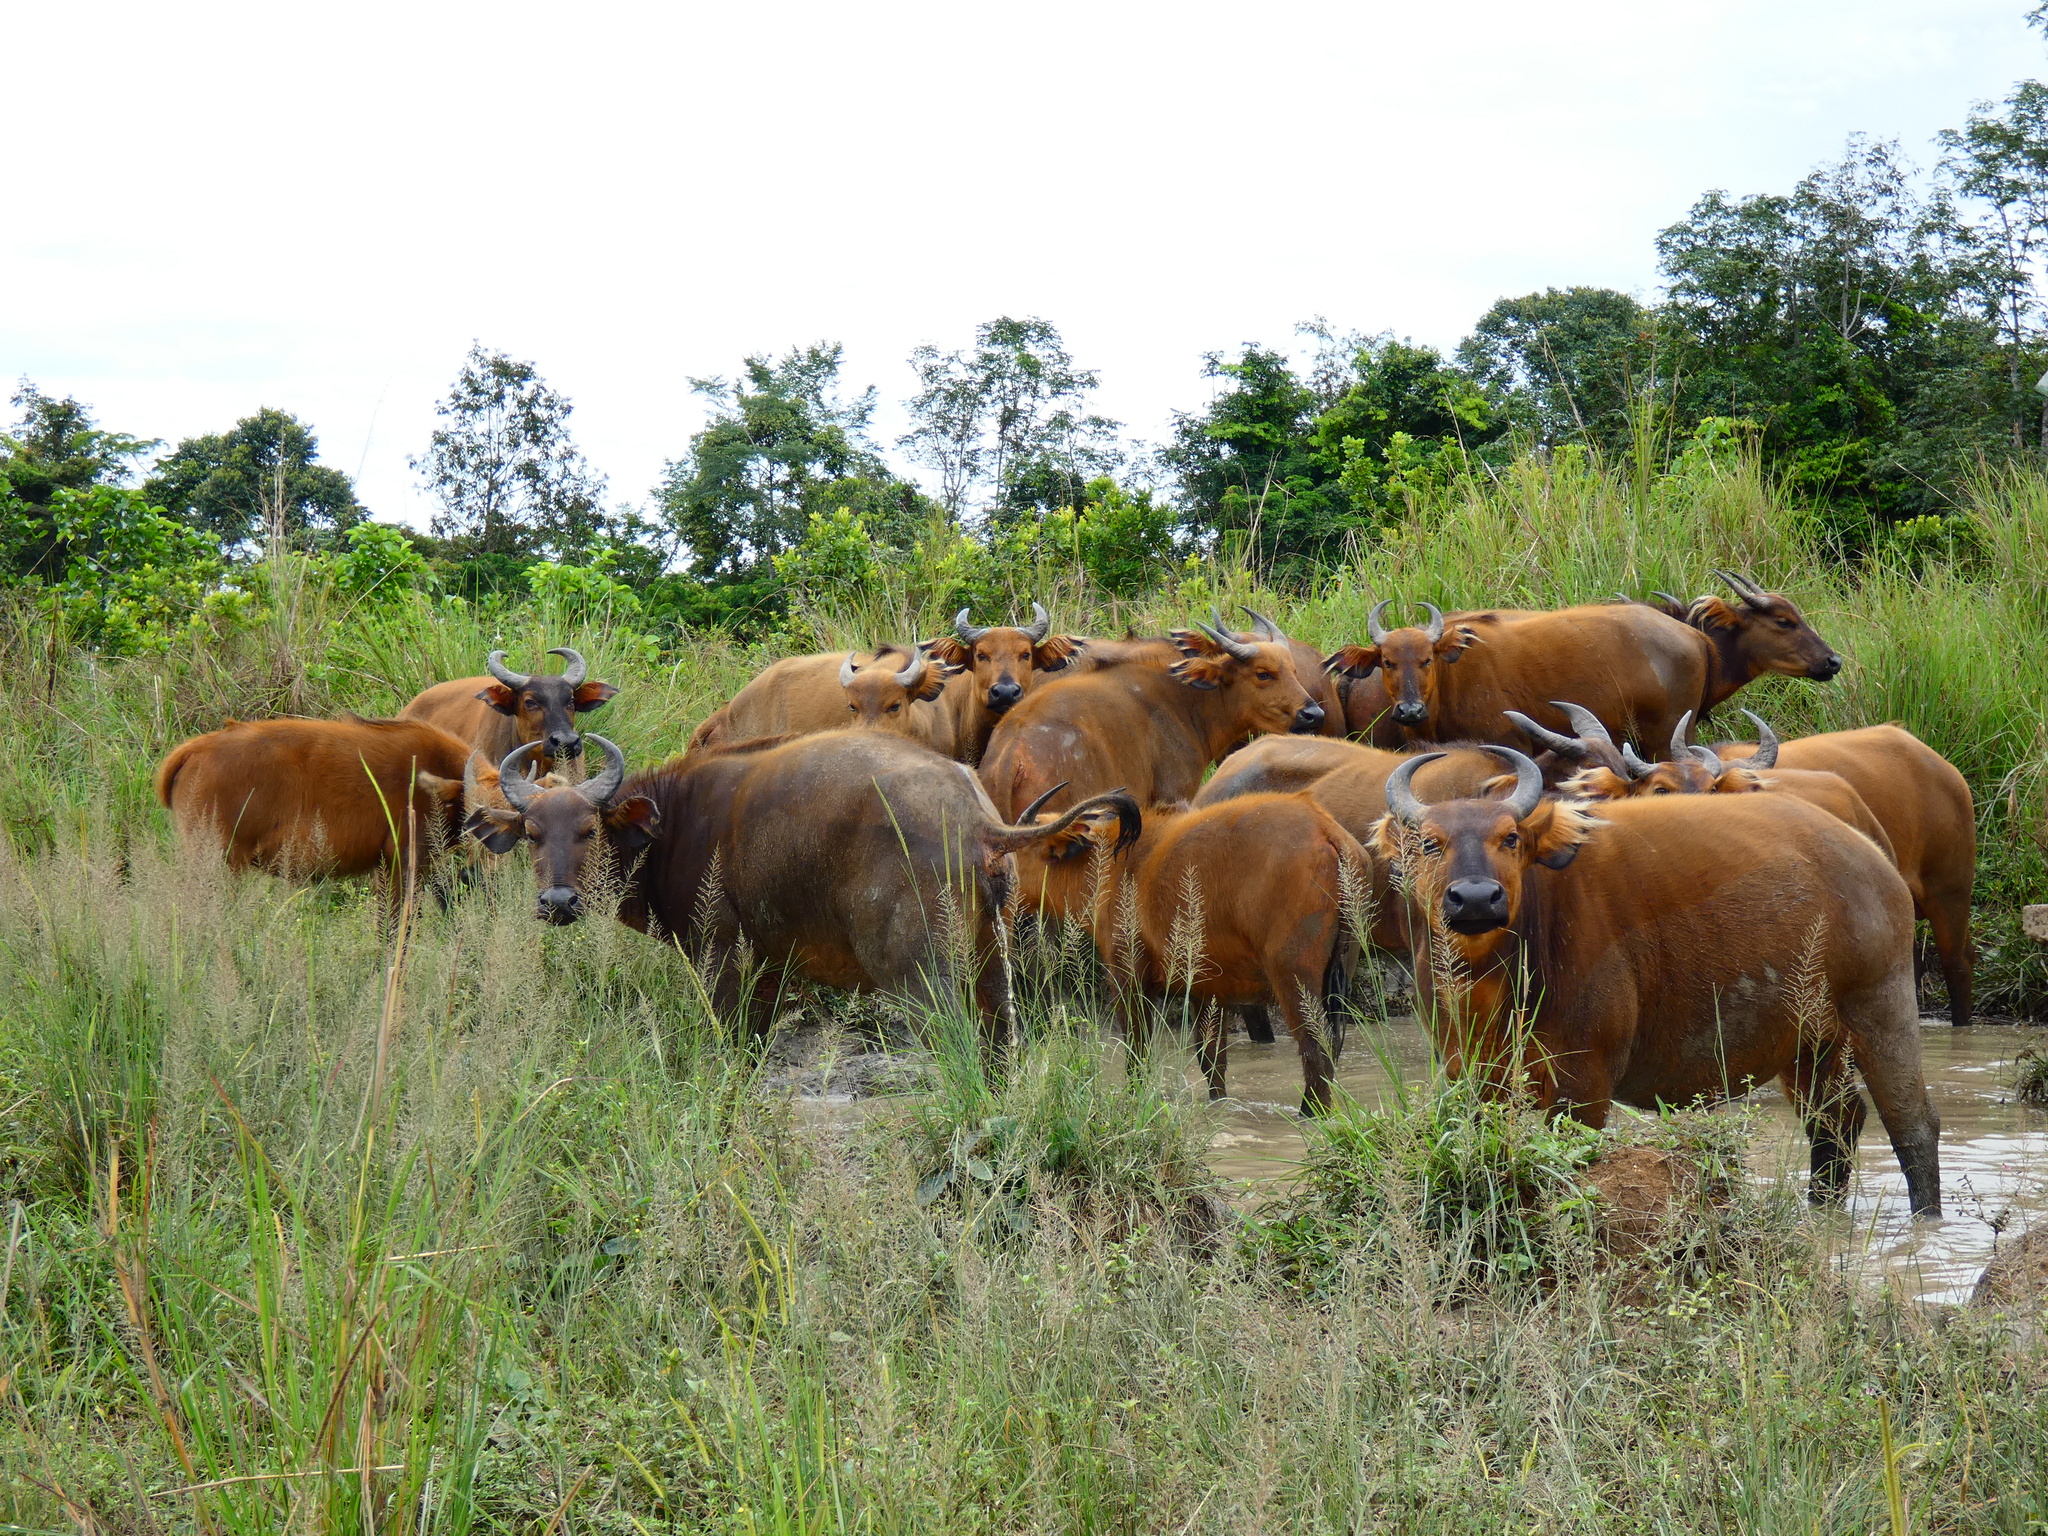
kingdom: Animalia
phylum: Chordata
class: Mammalia
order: Artiodactyla
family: Bovidae
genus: Syncerus
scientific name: Syncerus caffer
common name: African buffalo
